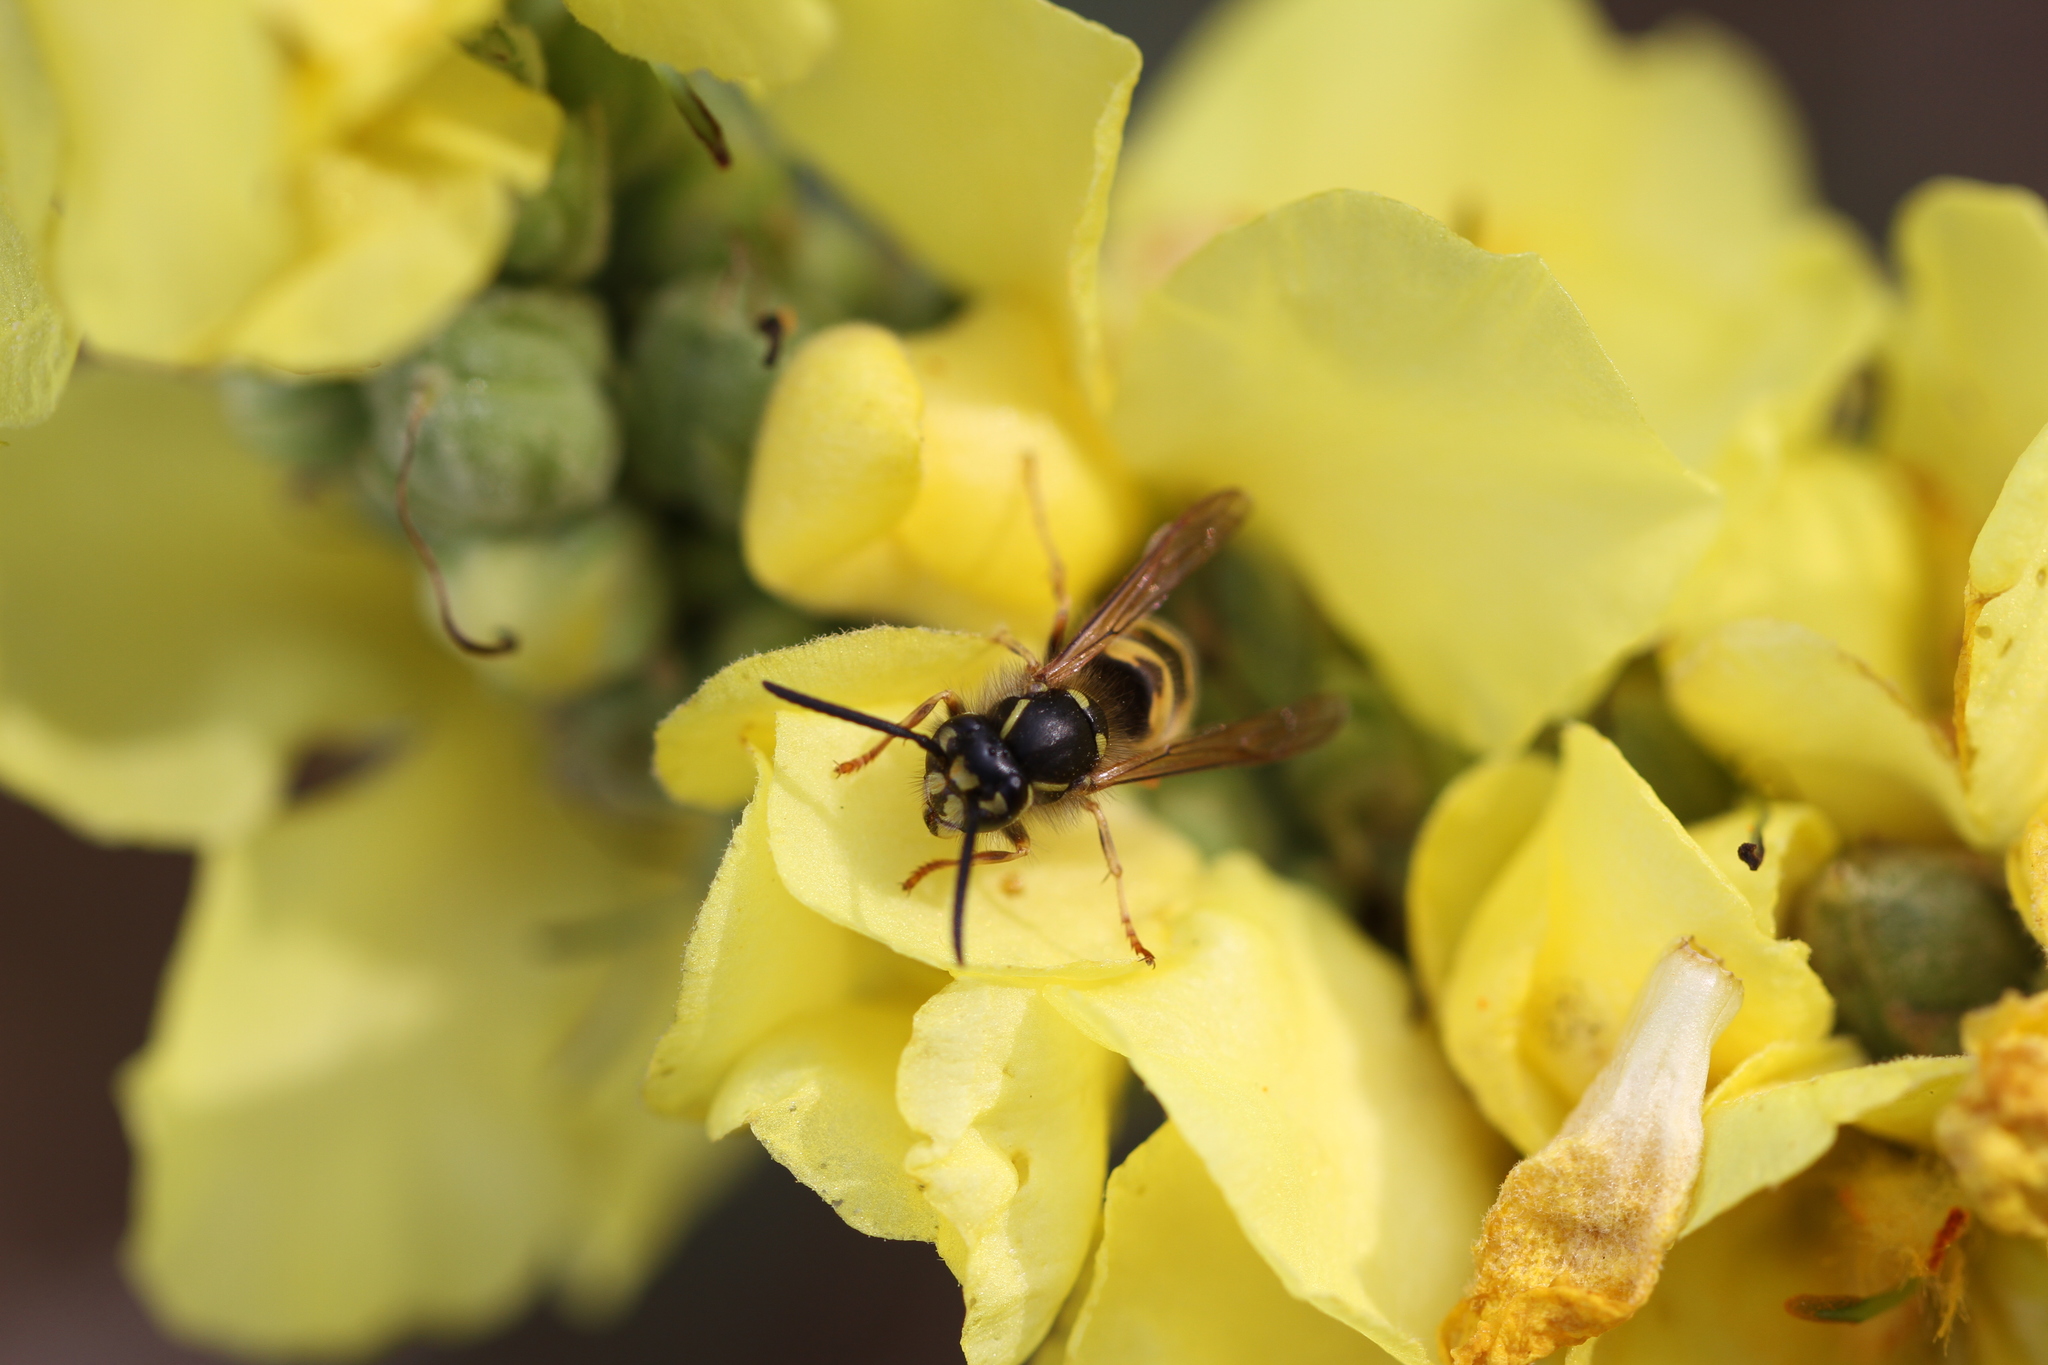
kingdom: Animalia
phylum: Arthropoda
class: Insecta
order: Hymenoptera
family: Vespidae
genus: Vespula
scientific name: Vespula vulgaris
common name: Common wasp
